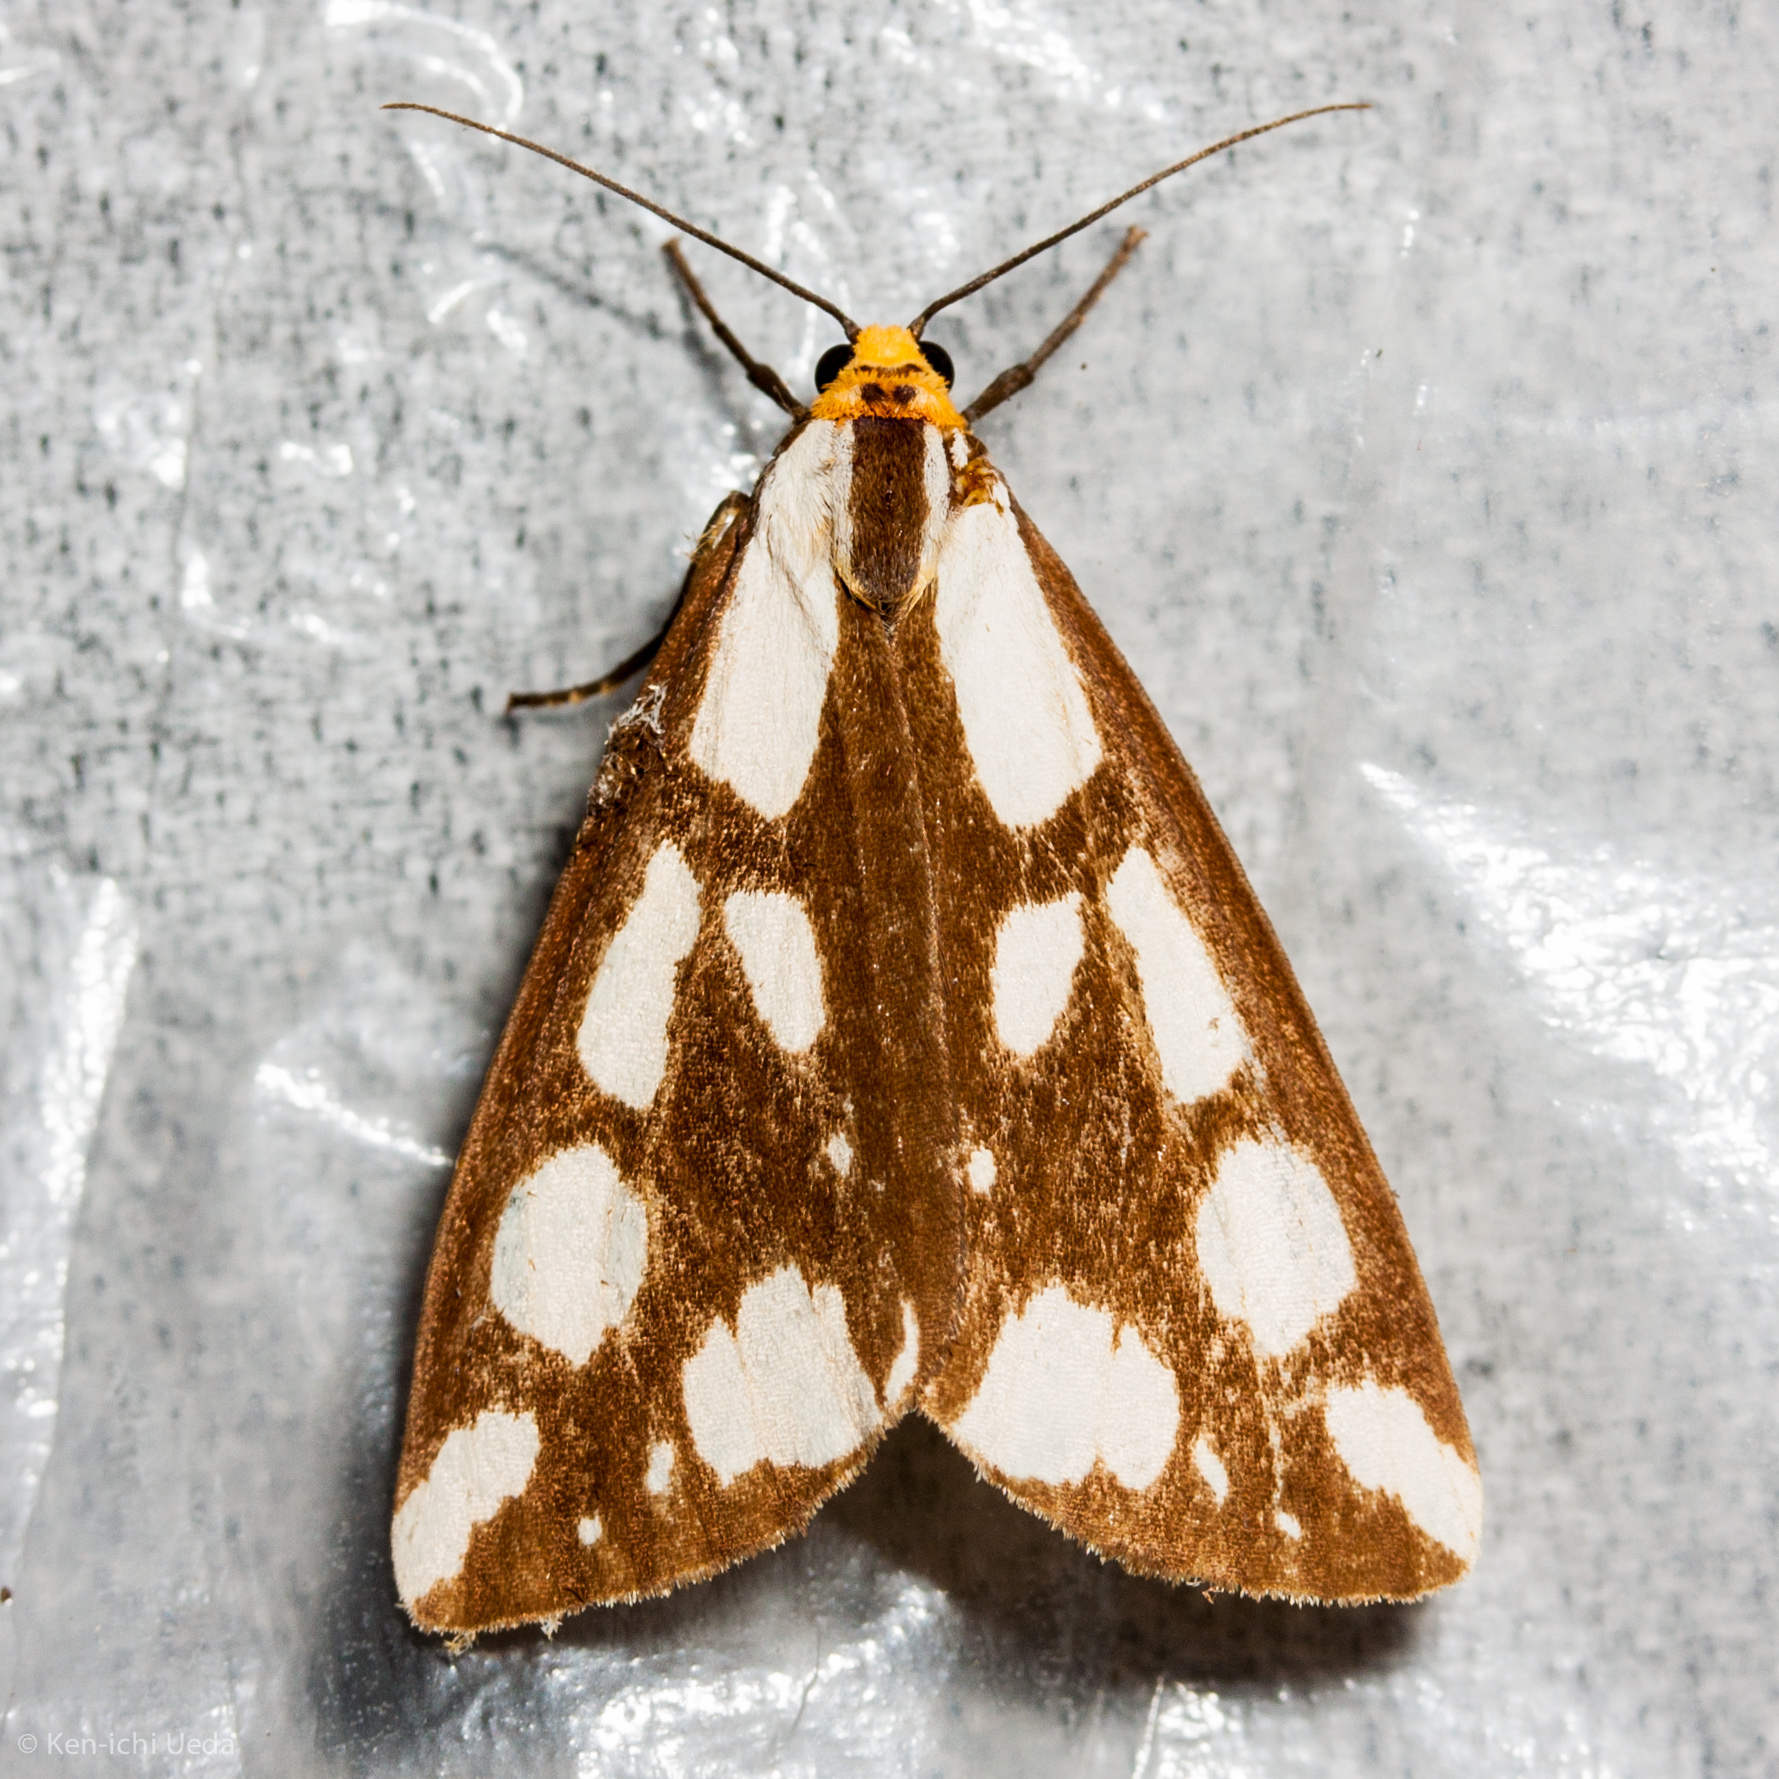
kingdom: Animalia
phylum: Arthropoda
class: Insecta
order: Lepidoptera
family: Erebidae
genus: Haploa
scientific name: Haploa confusa
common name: Confused haploa moth
